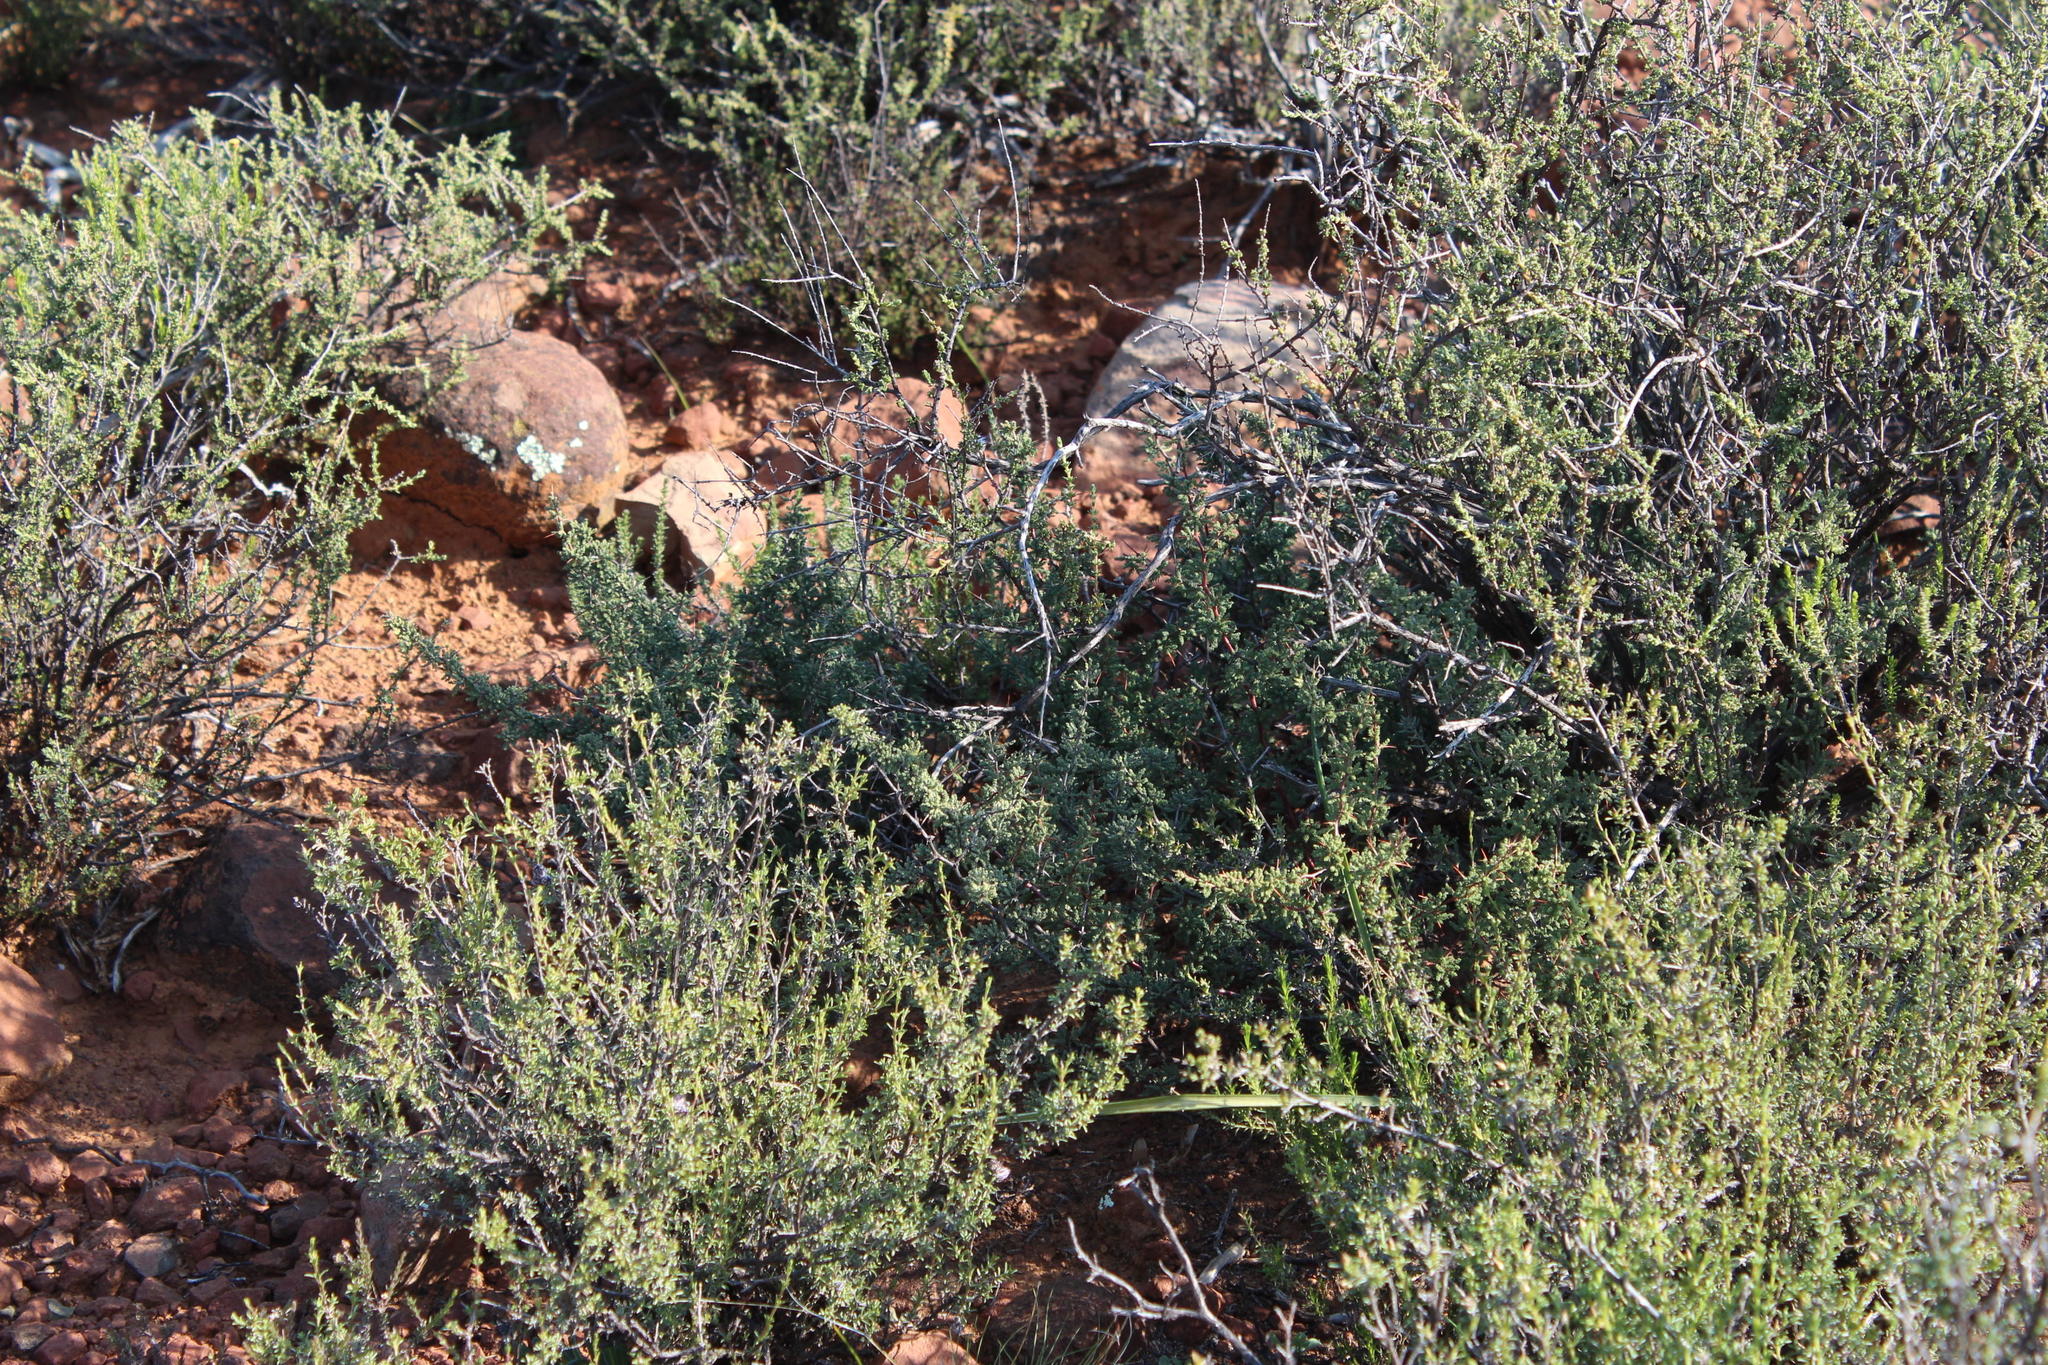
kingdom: Plantae
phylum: Tracheophyta
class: Liliopsida
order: Asparagales
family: Asparagaceae
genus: Asparagus
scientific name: Asparagus capensis
